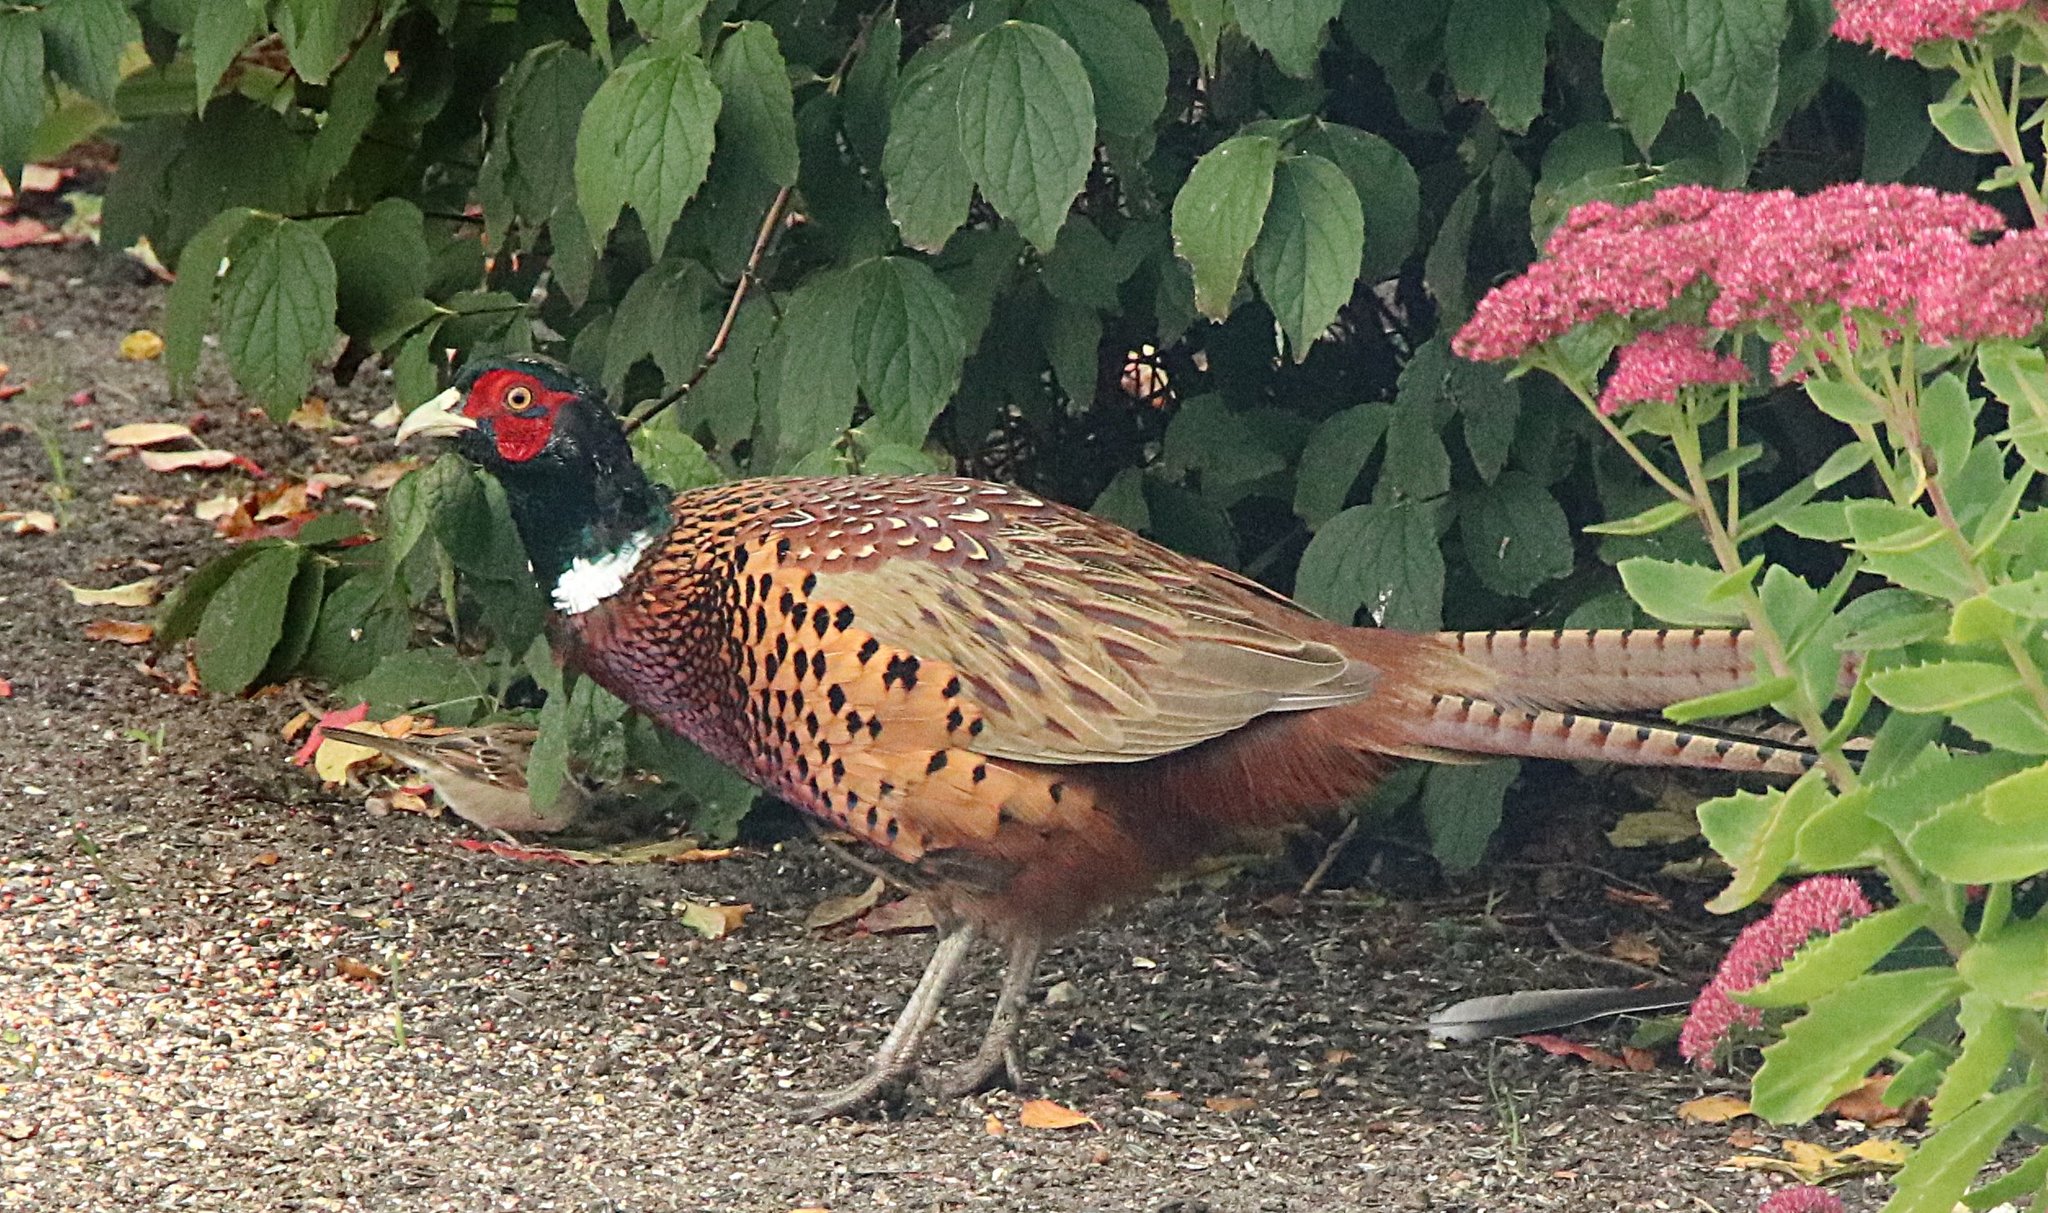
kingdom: Animalia
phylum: Chordata
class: Aves
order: Galliformes
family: Phasianidae
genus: Phasianus
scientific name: Phasianus colchicus
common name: Common pheasant
